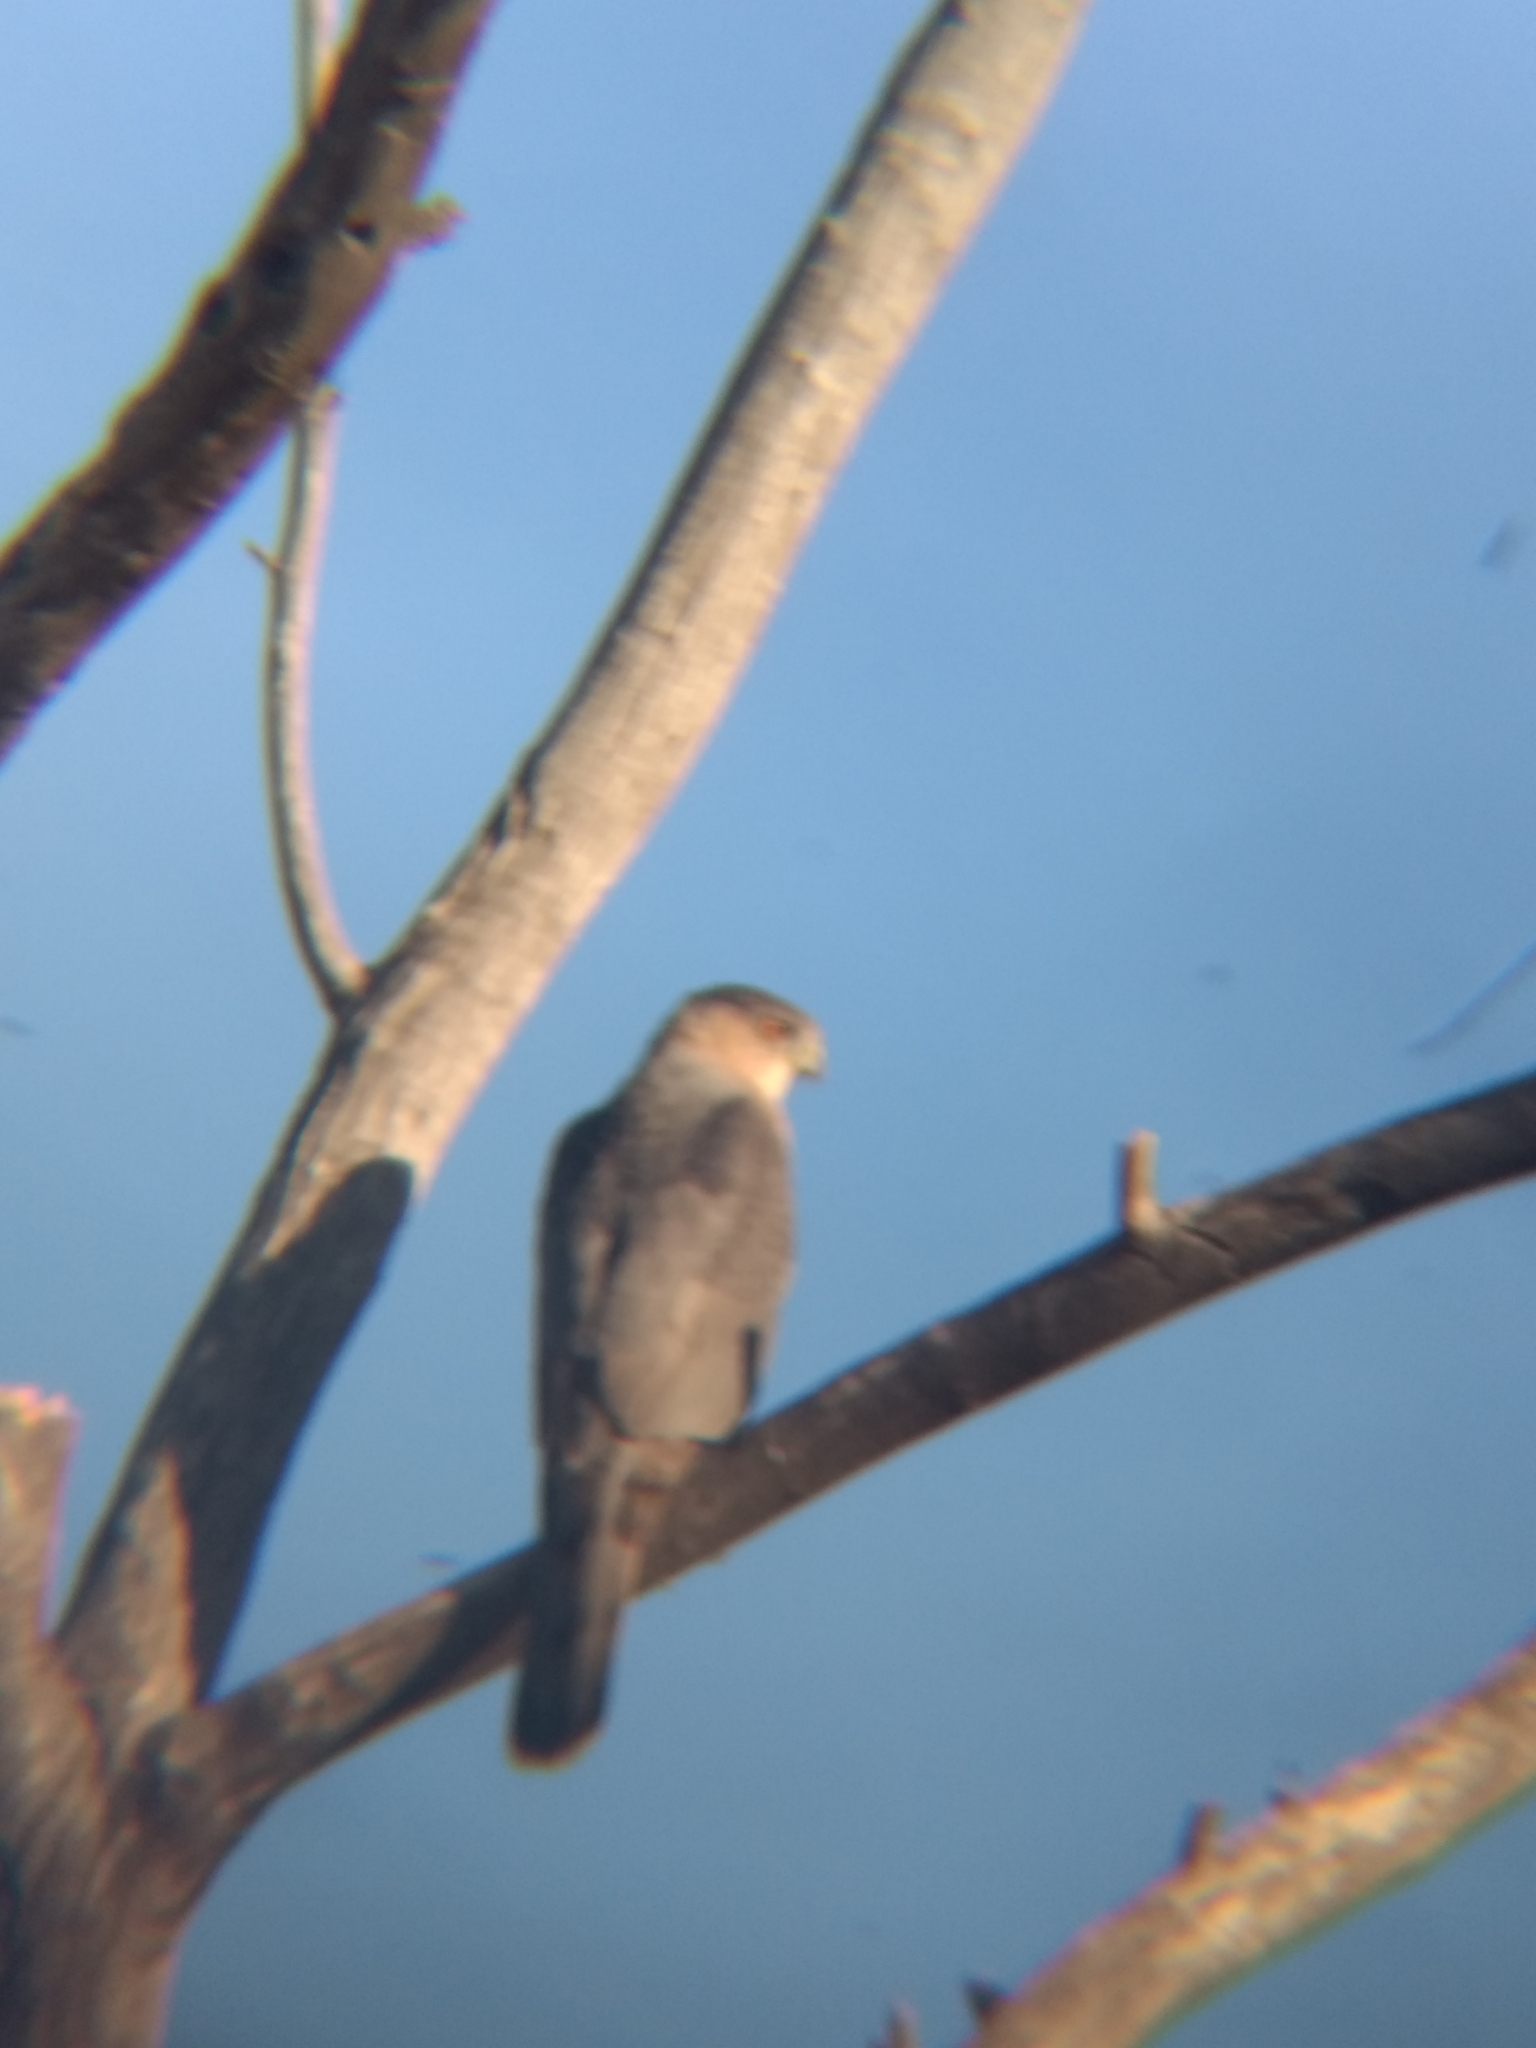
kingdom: Animalia
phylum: Chordata
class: Aves
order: Accipitriformes
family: Accipitridae
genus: Accipiter
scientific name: Accipiter cooperii
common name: Cooper's hawk
